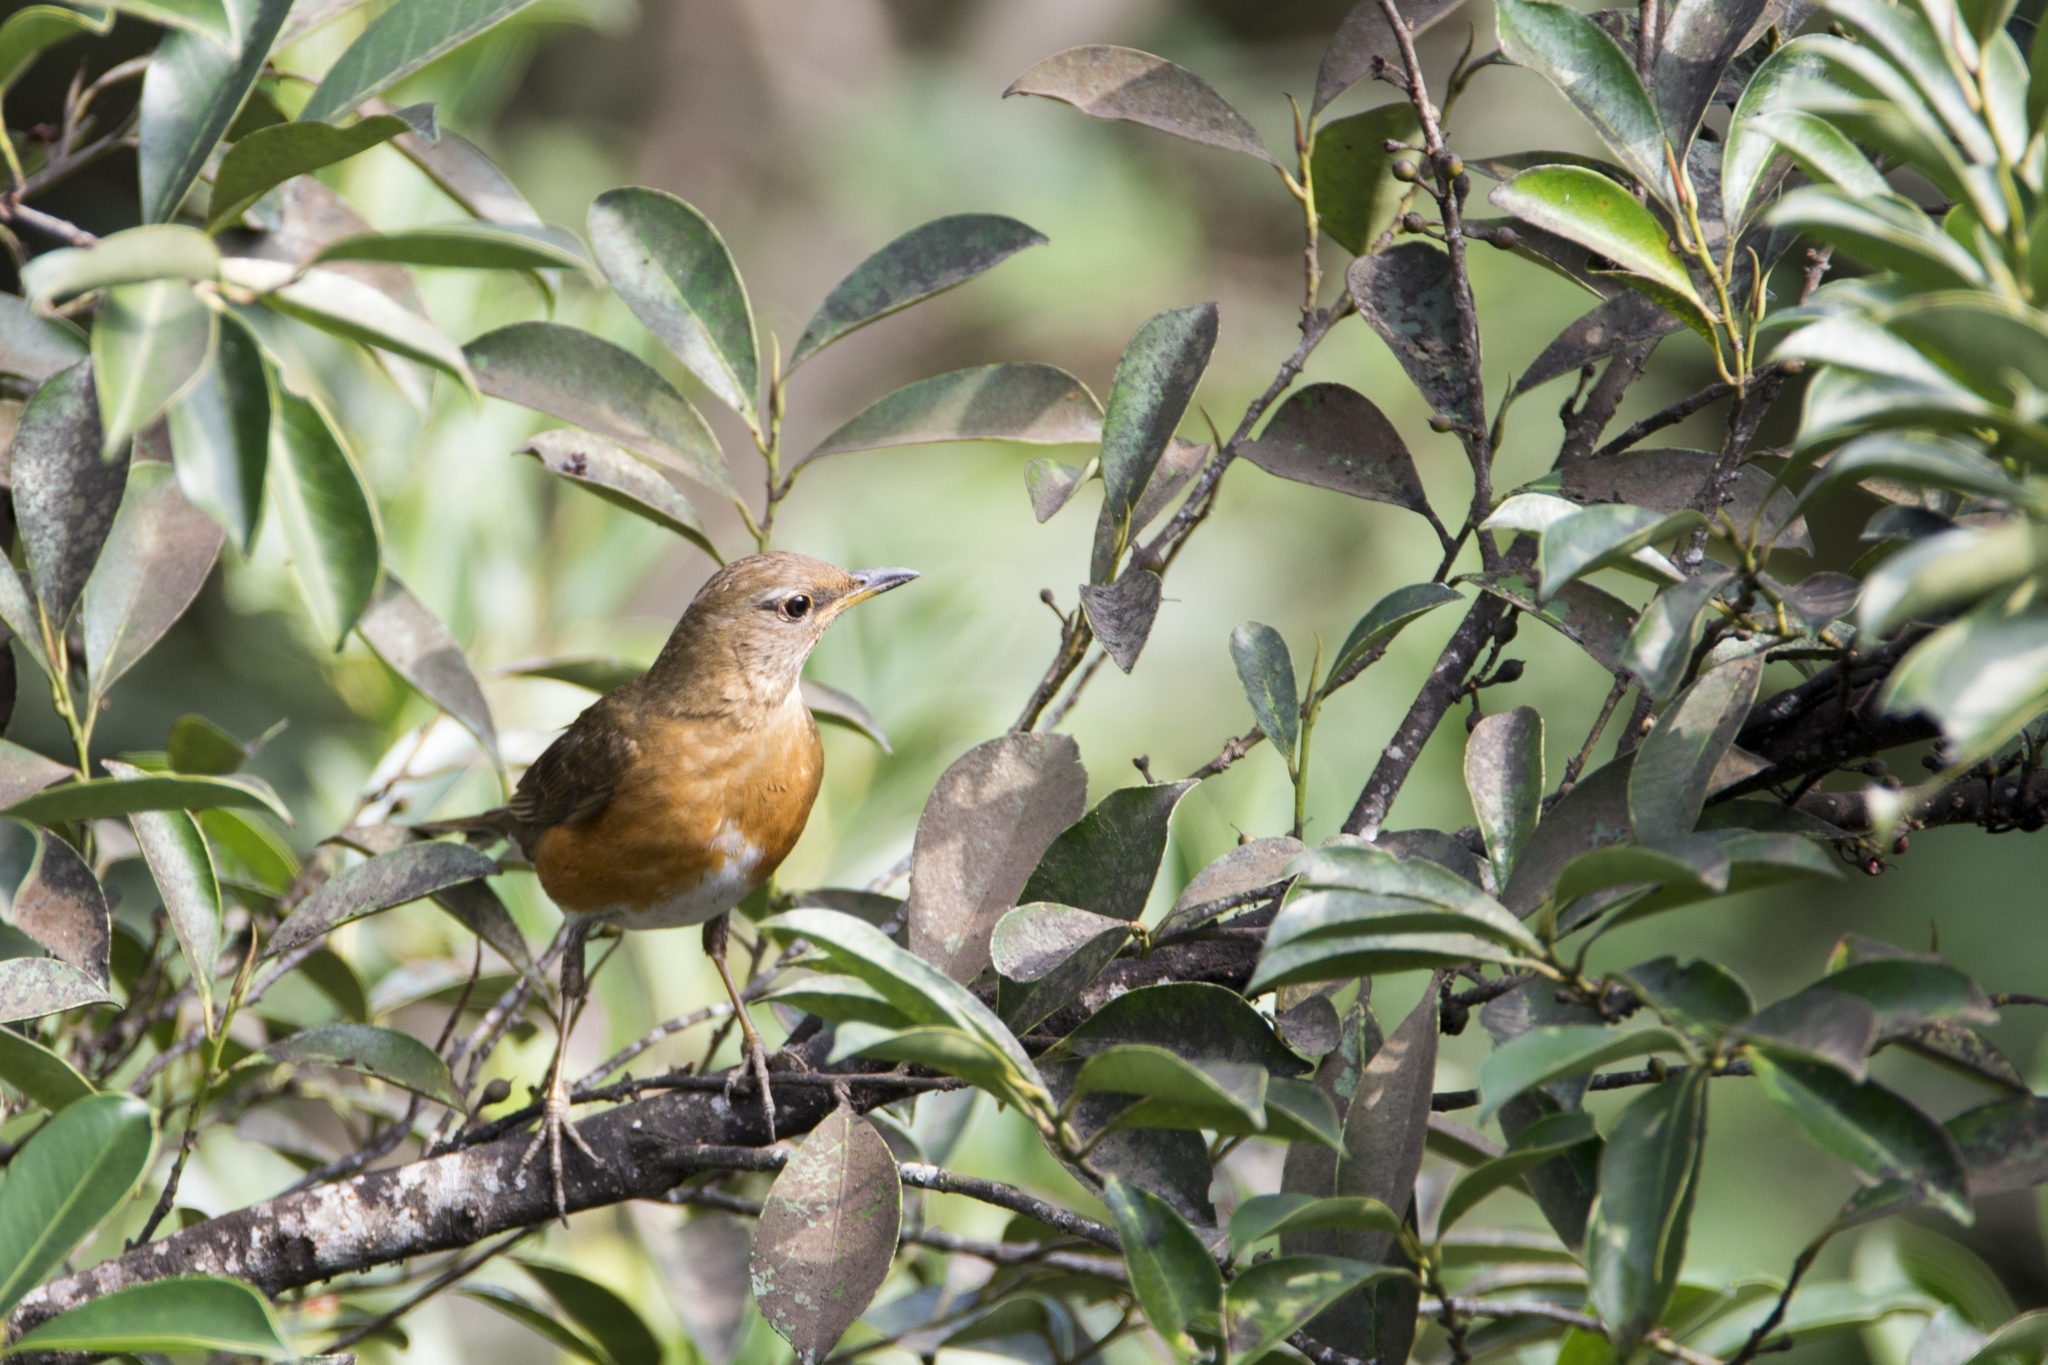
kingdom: Animalia
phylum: Chordata
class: Aves
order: Passeriformes
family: Turdidae
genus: Turdus
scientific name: Turdus chrysolaus
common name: Brown-headed thrush
